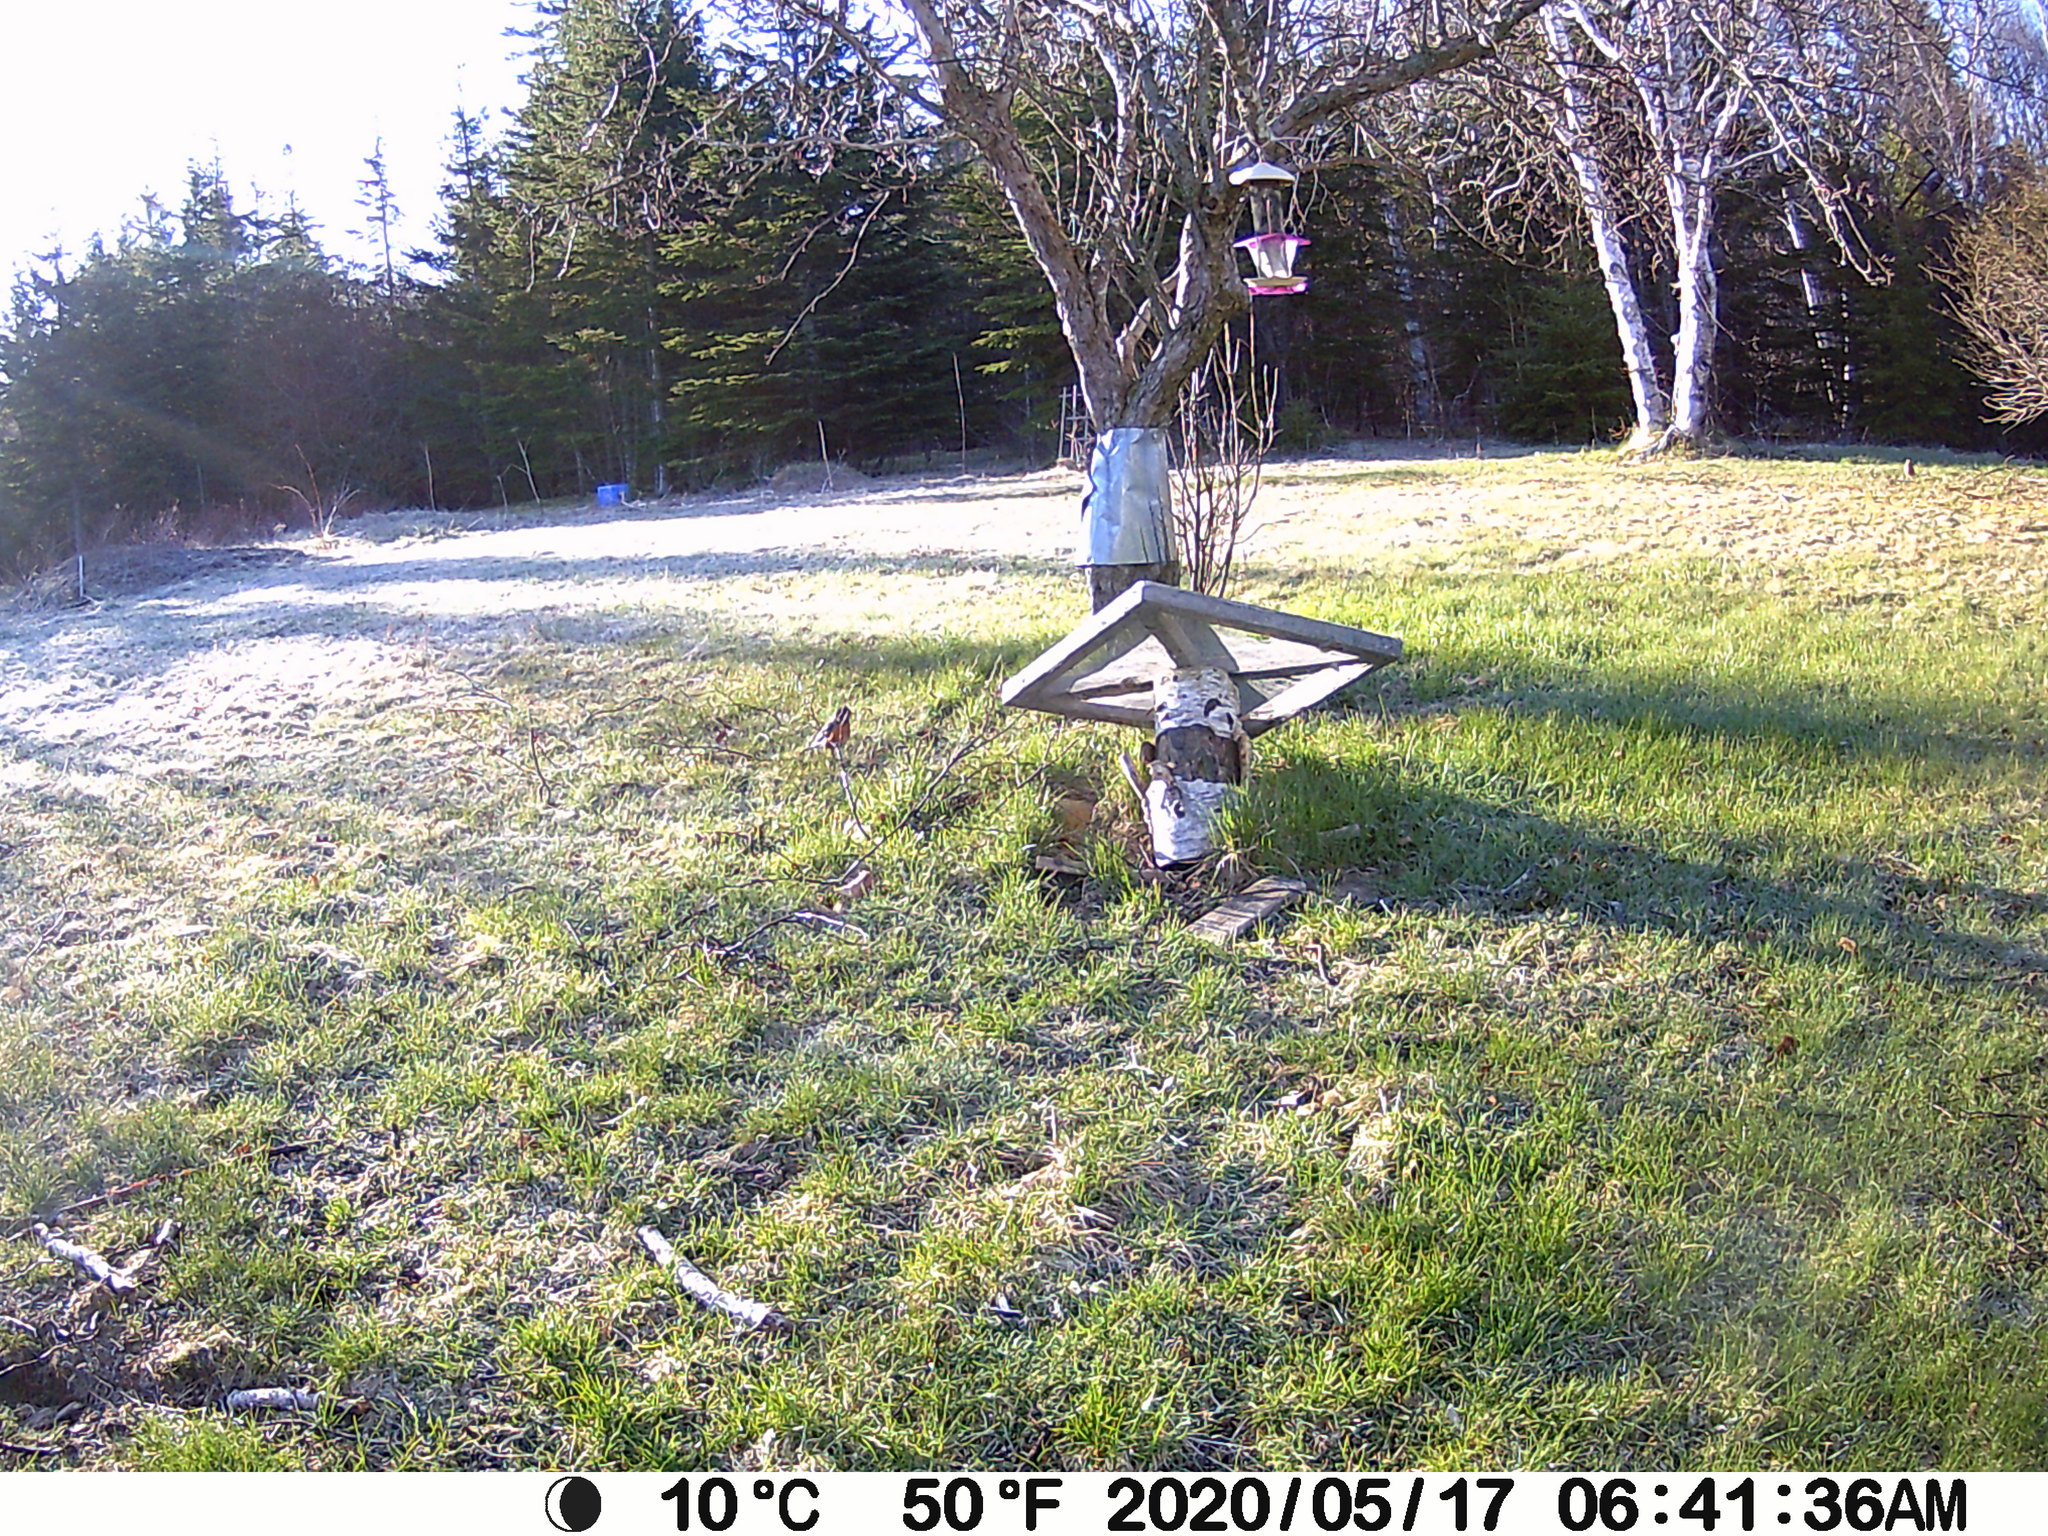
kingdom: Animalia
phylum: Chordata
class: Aves
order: Passeriformes
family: Turdidae
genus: Turdus
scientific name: Turdus migratorius
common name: American robin
